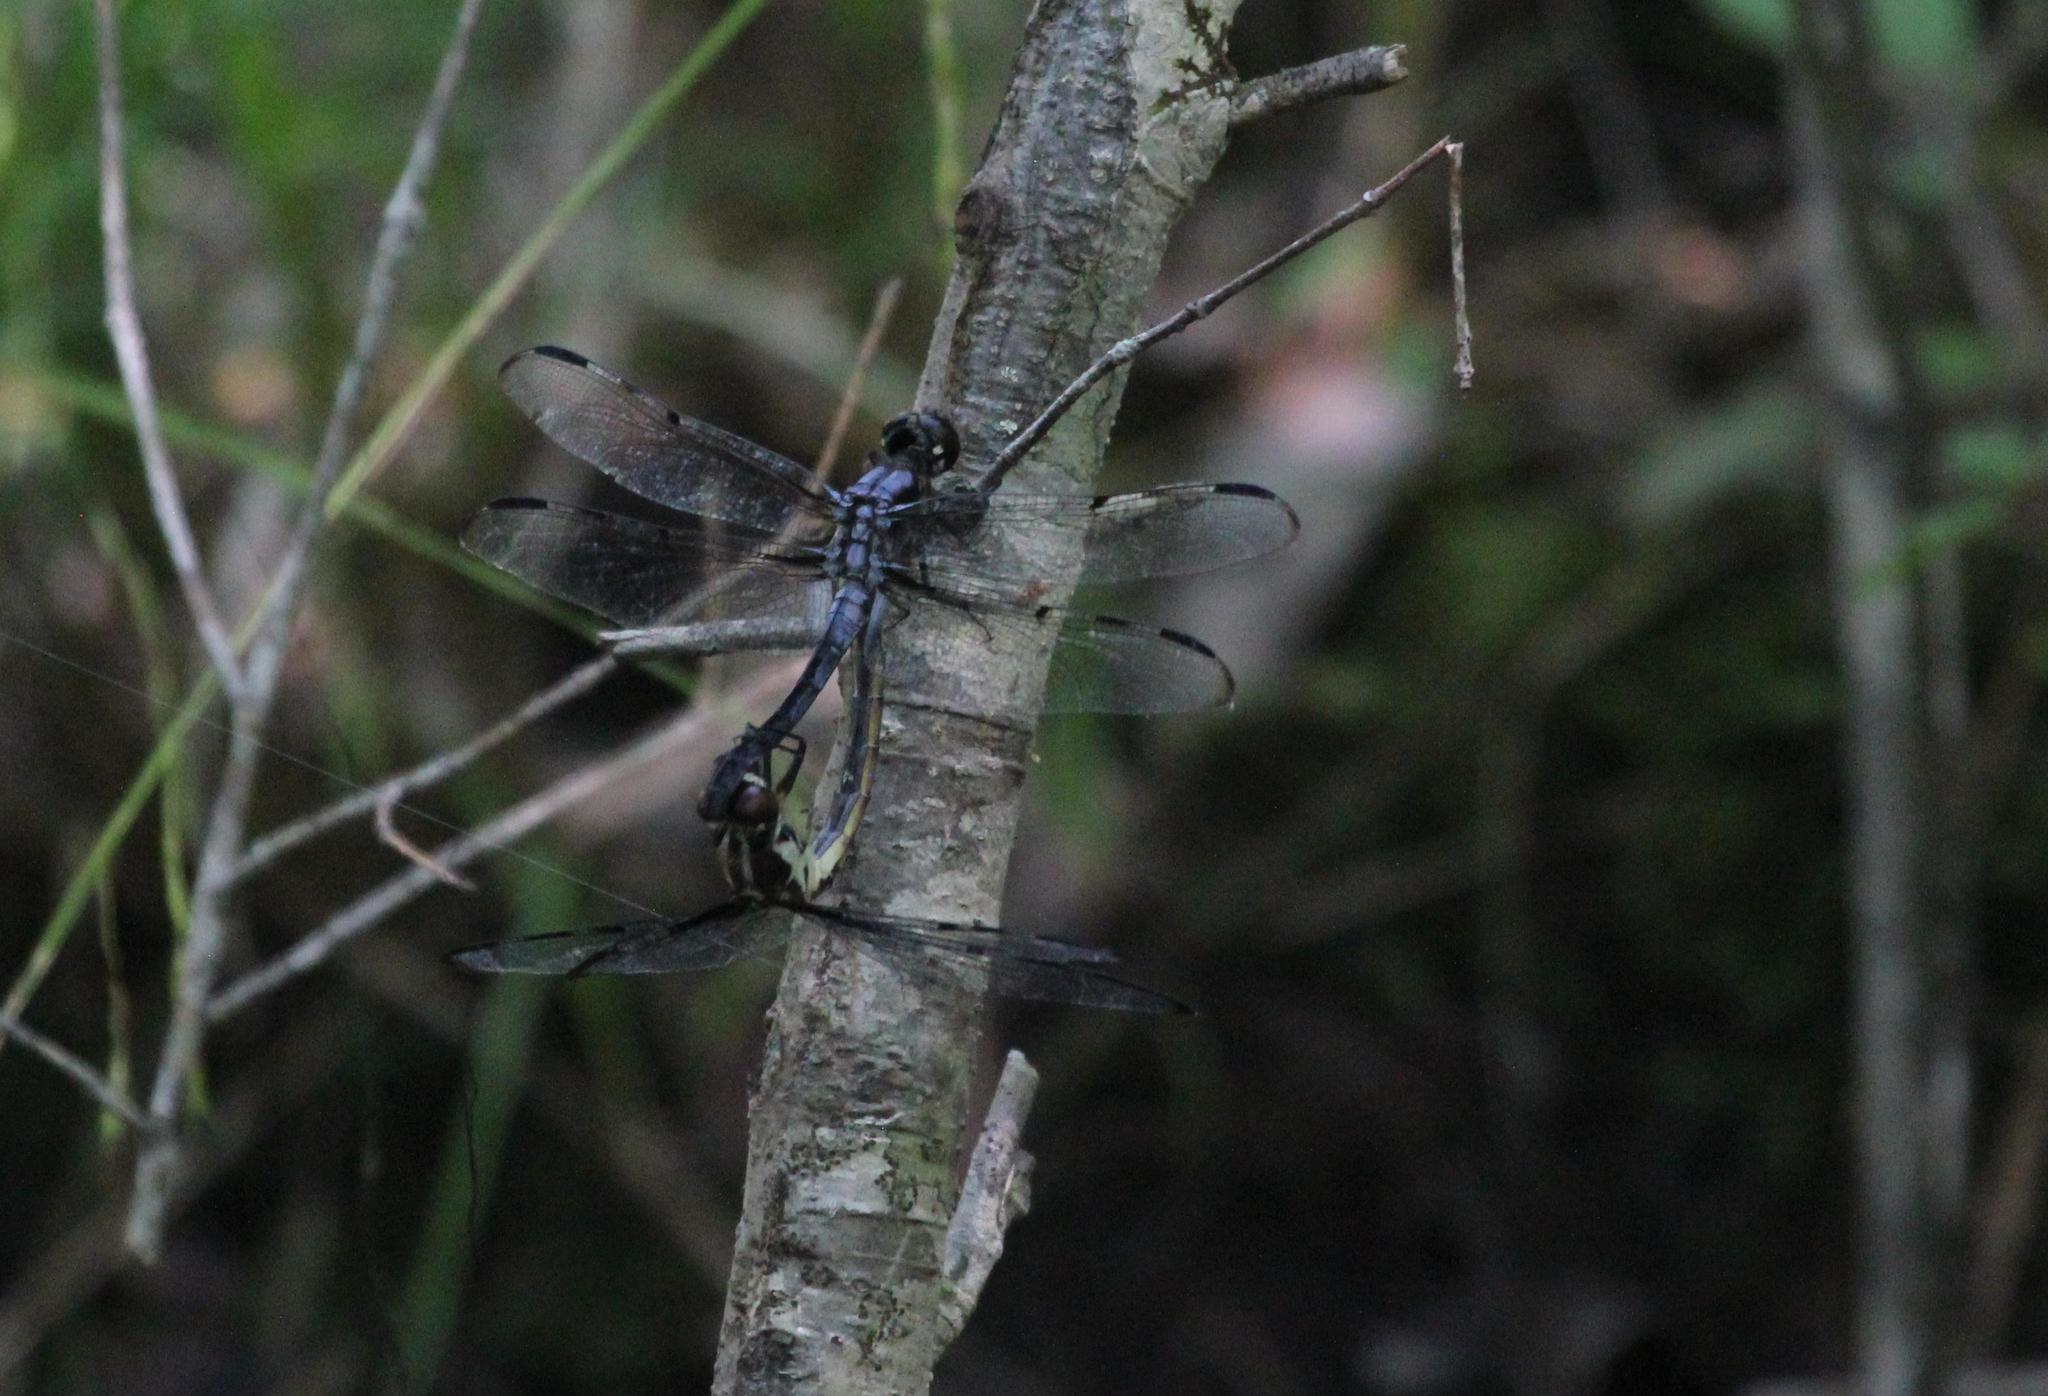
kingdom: Animalia
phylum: Arthropoda
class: Insecta
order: Odonata
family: Libellulidae
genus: Libellula
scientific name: Libellula axilena
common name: Bar-winged skimmer
